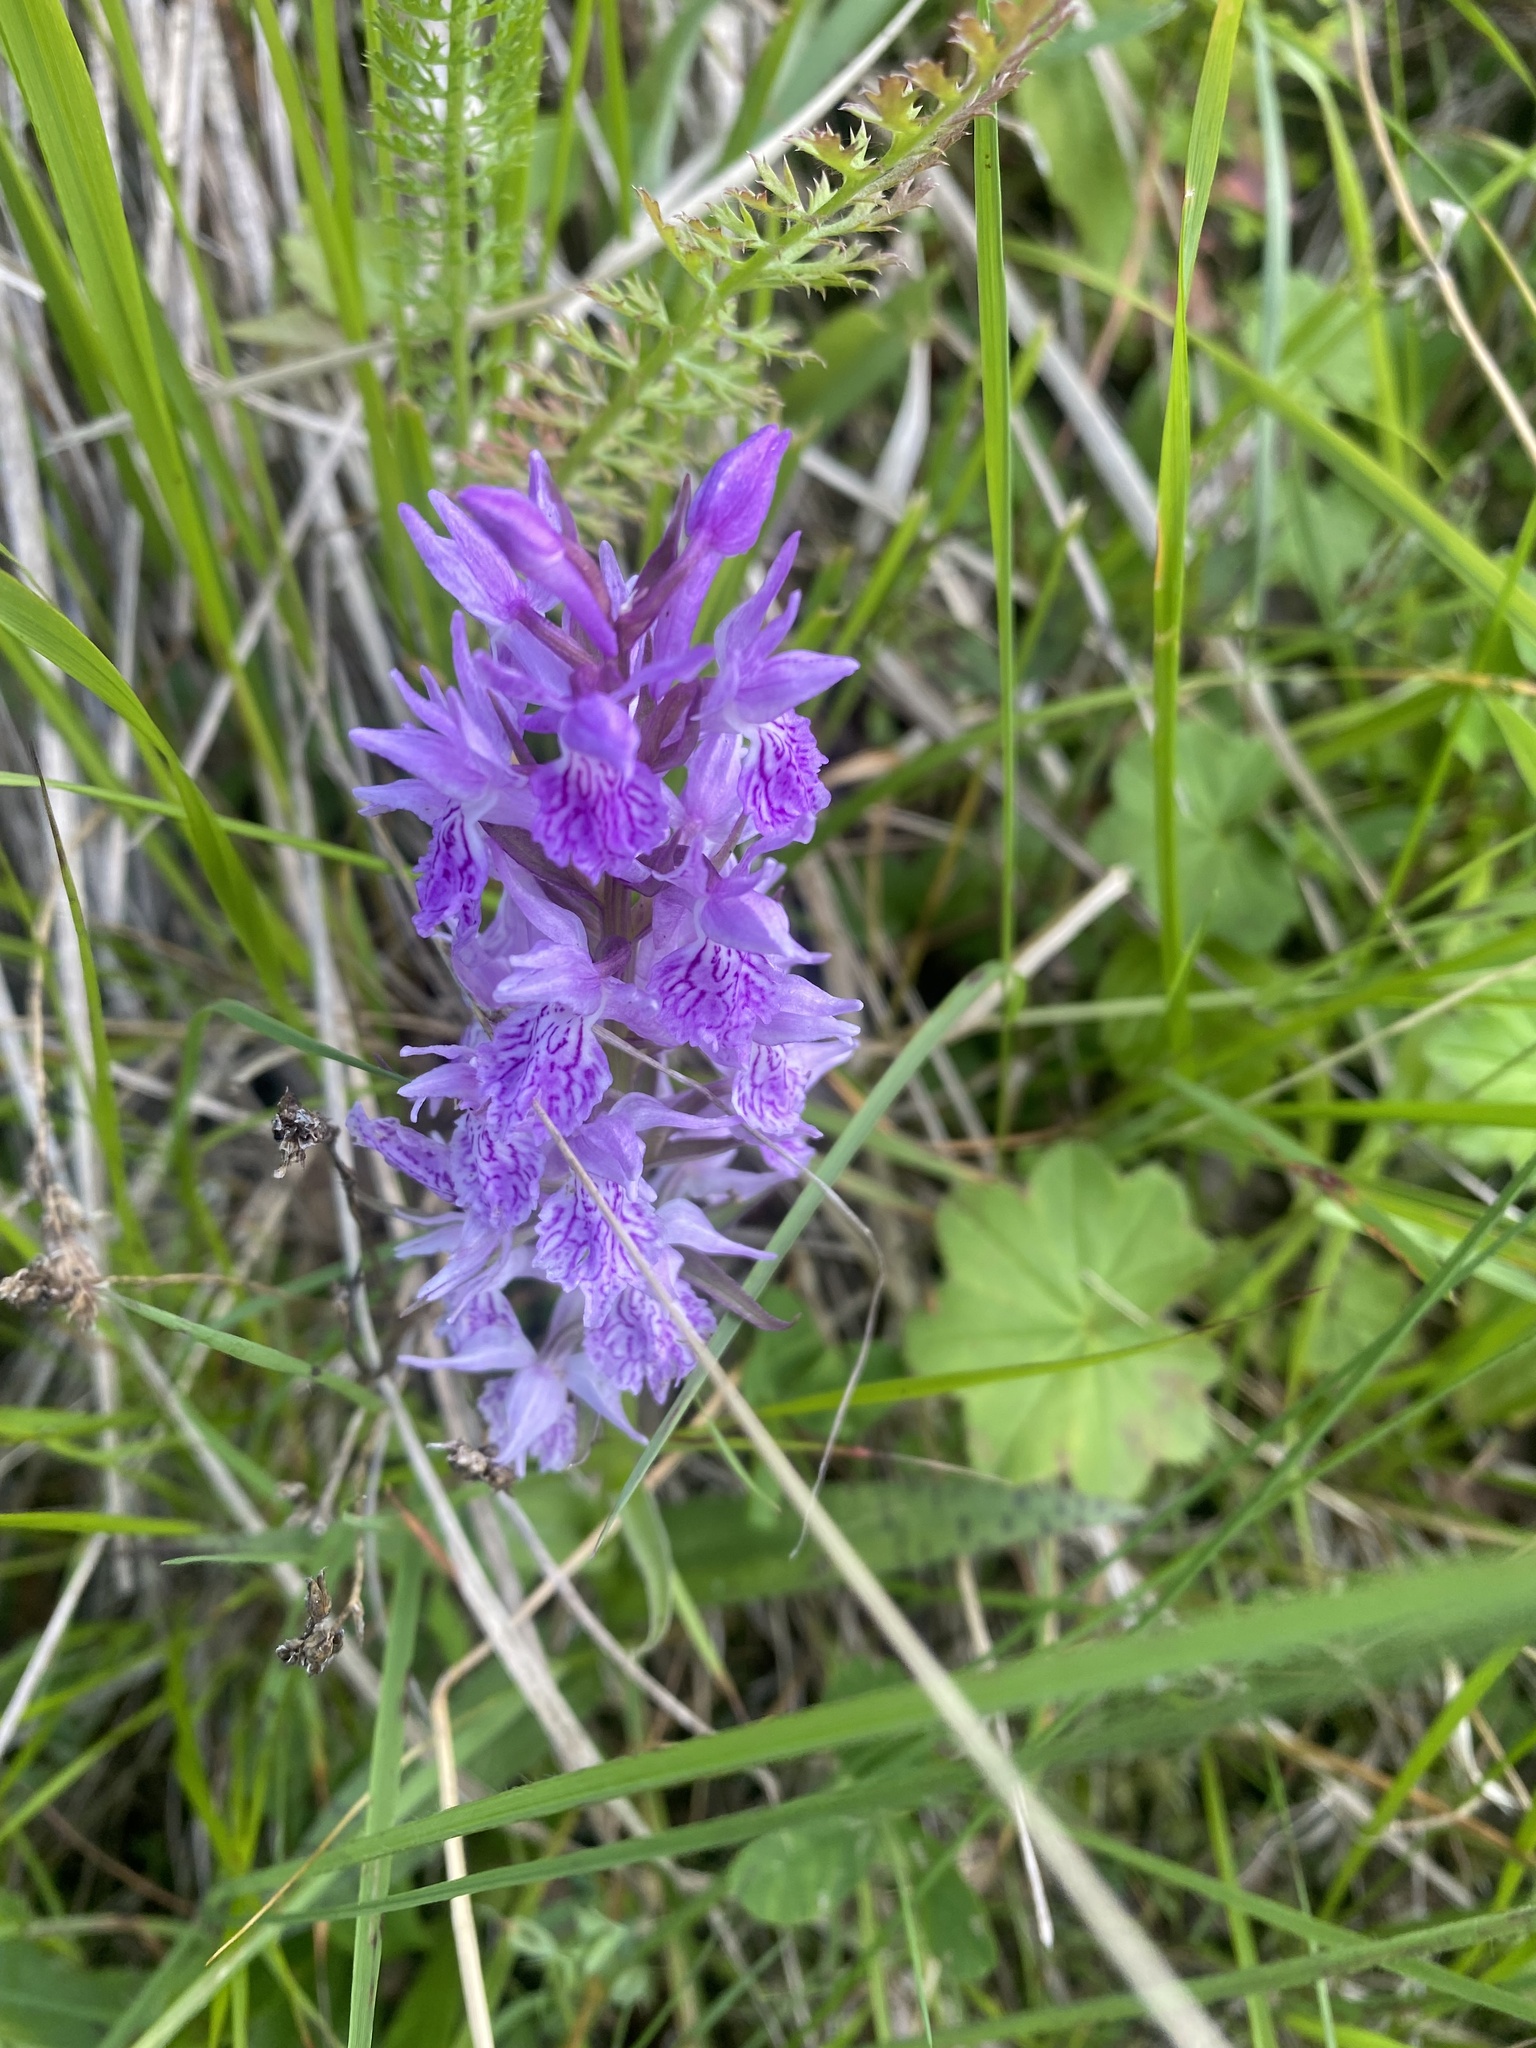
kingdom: Plantae
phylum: Tracheophyta
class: Liliopsida
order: Asparagales
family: Orchidaceae
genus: Dactylorhiza
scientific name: Dactylorhiza euxina
